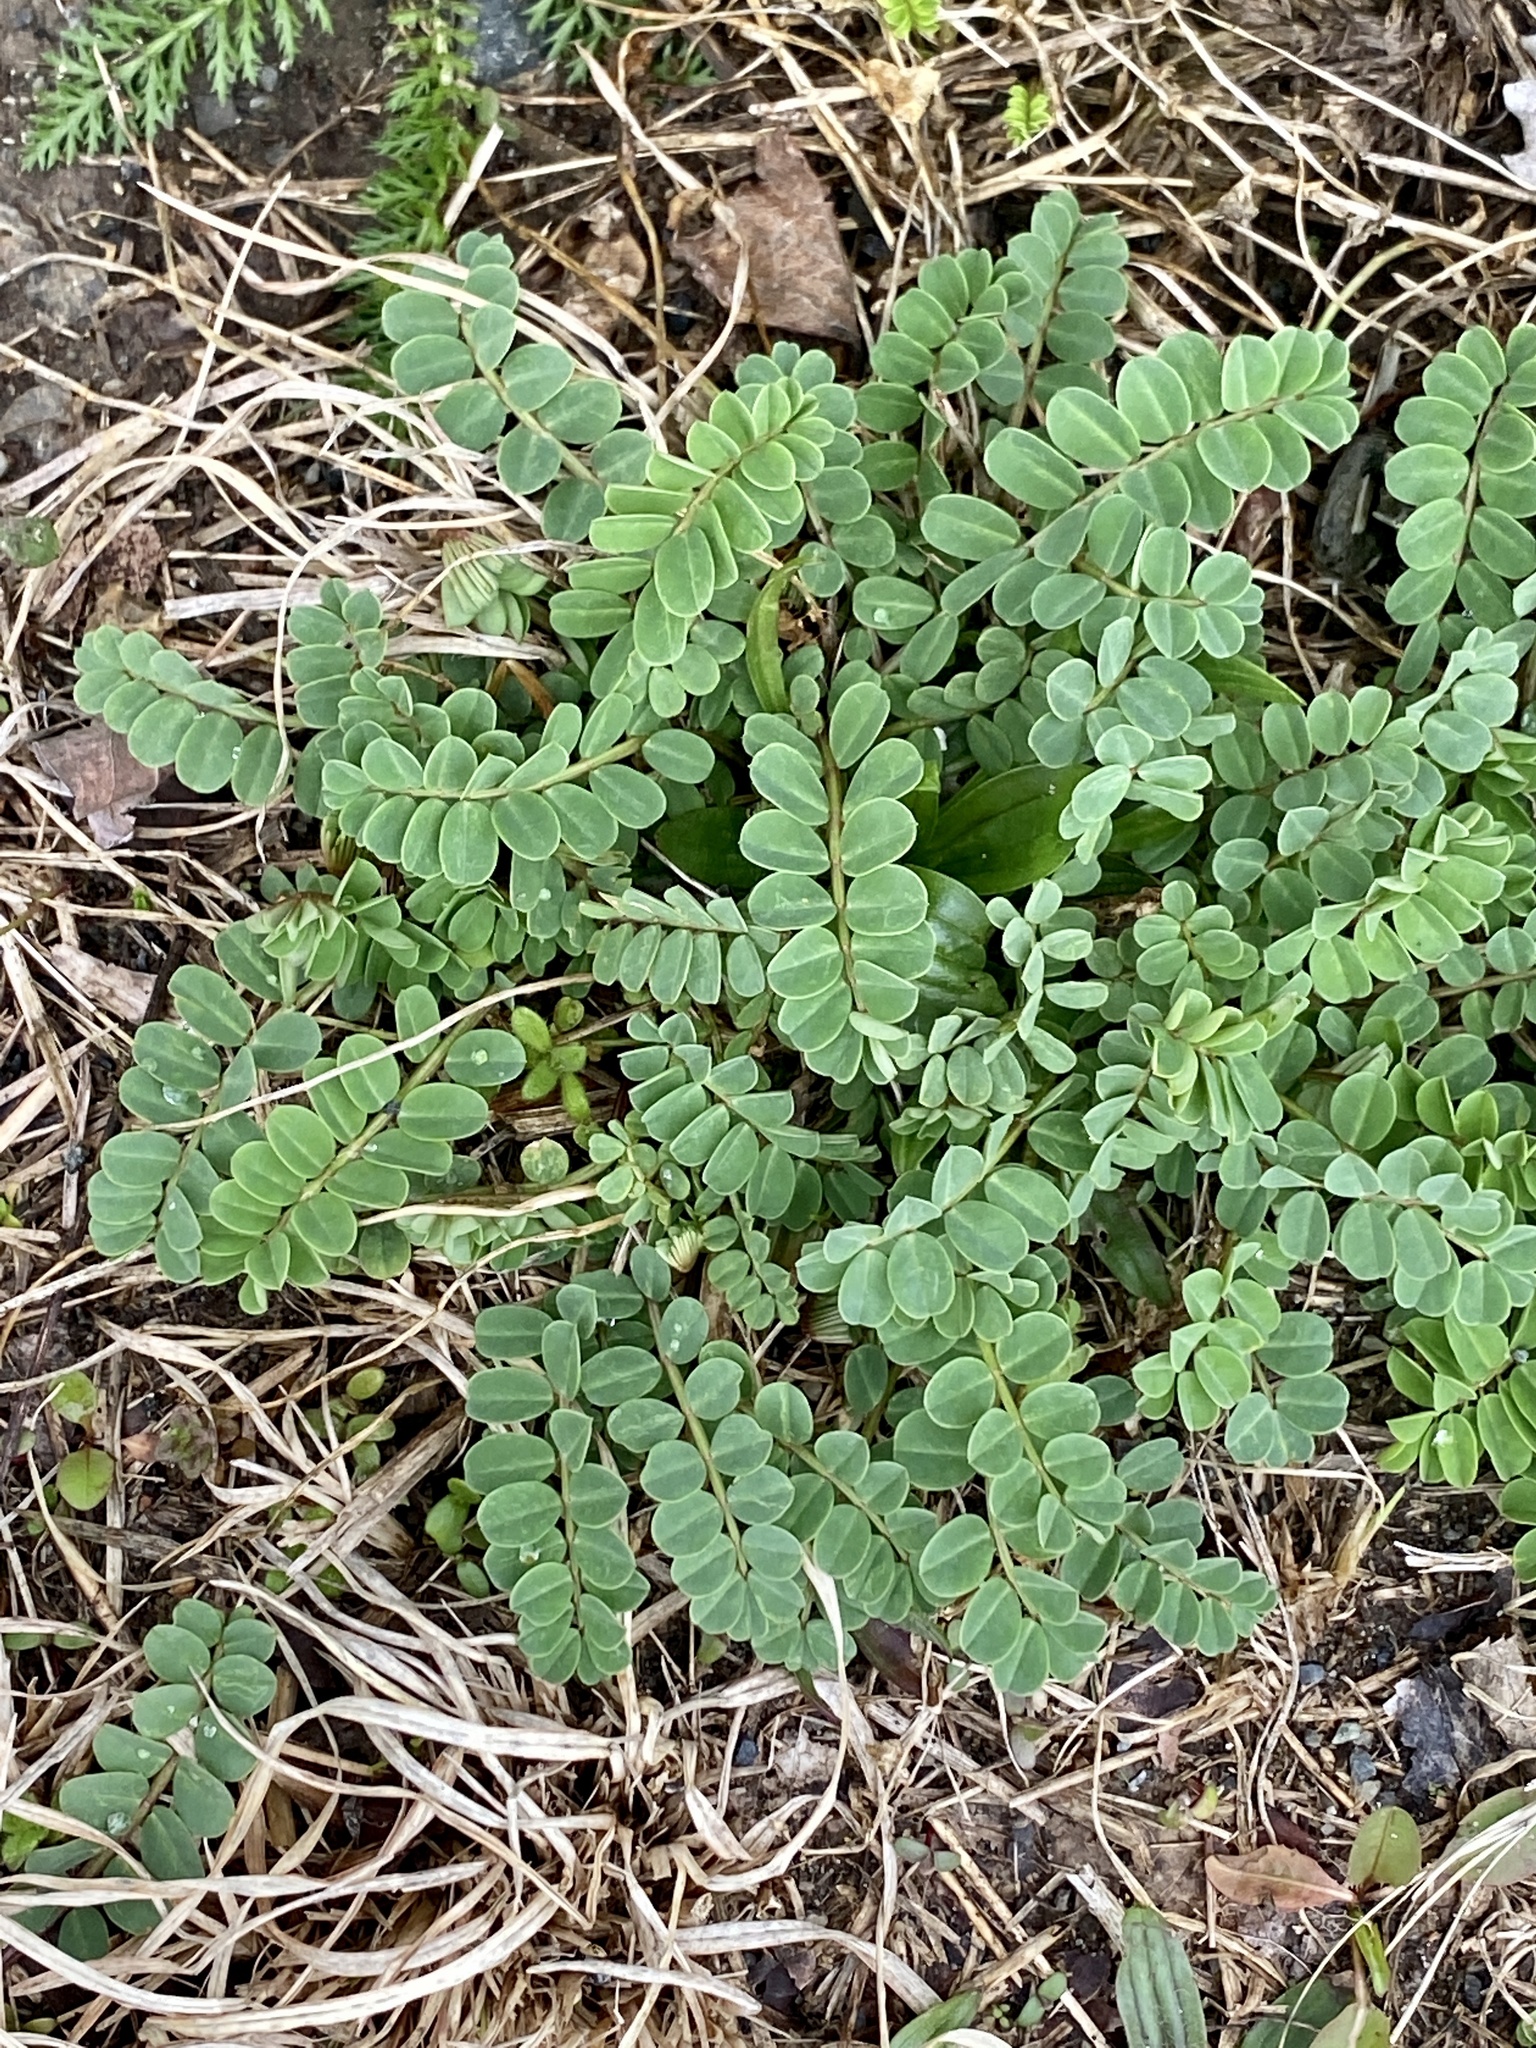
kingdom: Plantae
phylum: Tracheophyta
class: Magnoliopsida
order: Fabales
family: Fabaceae
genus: Coronilla
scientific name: Coronilla varia
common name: Crownvetch
